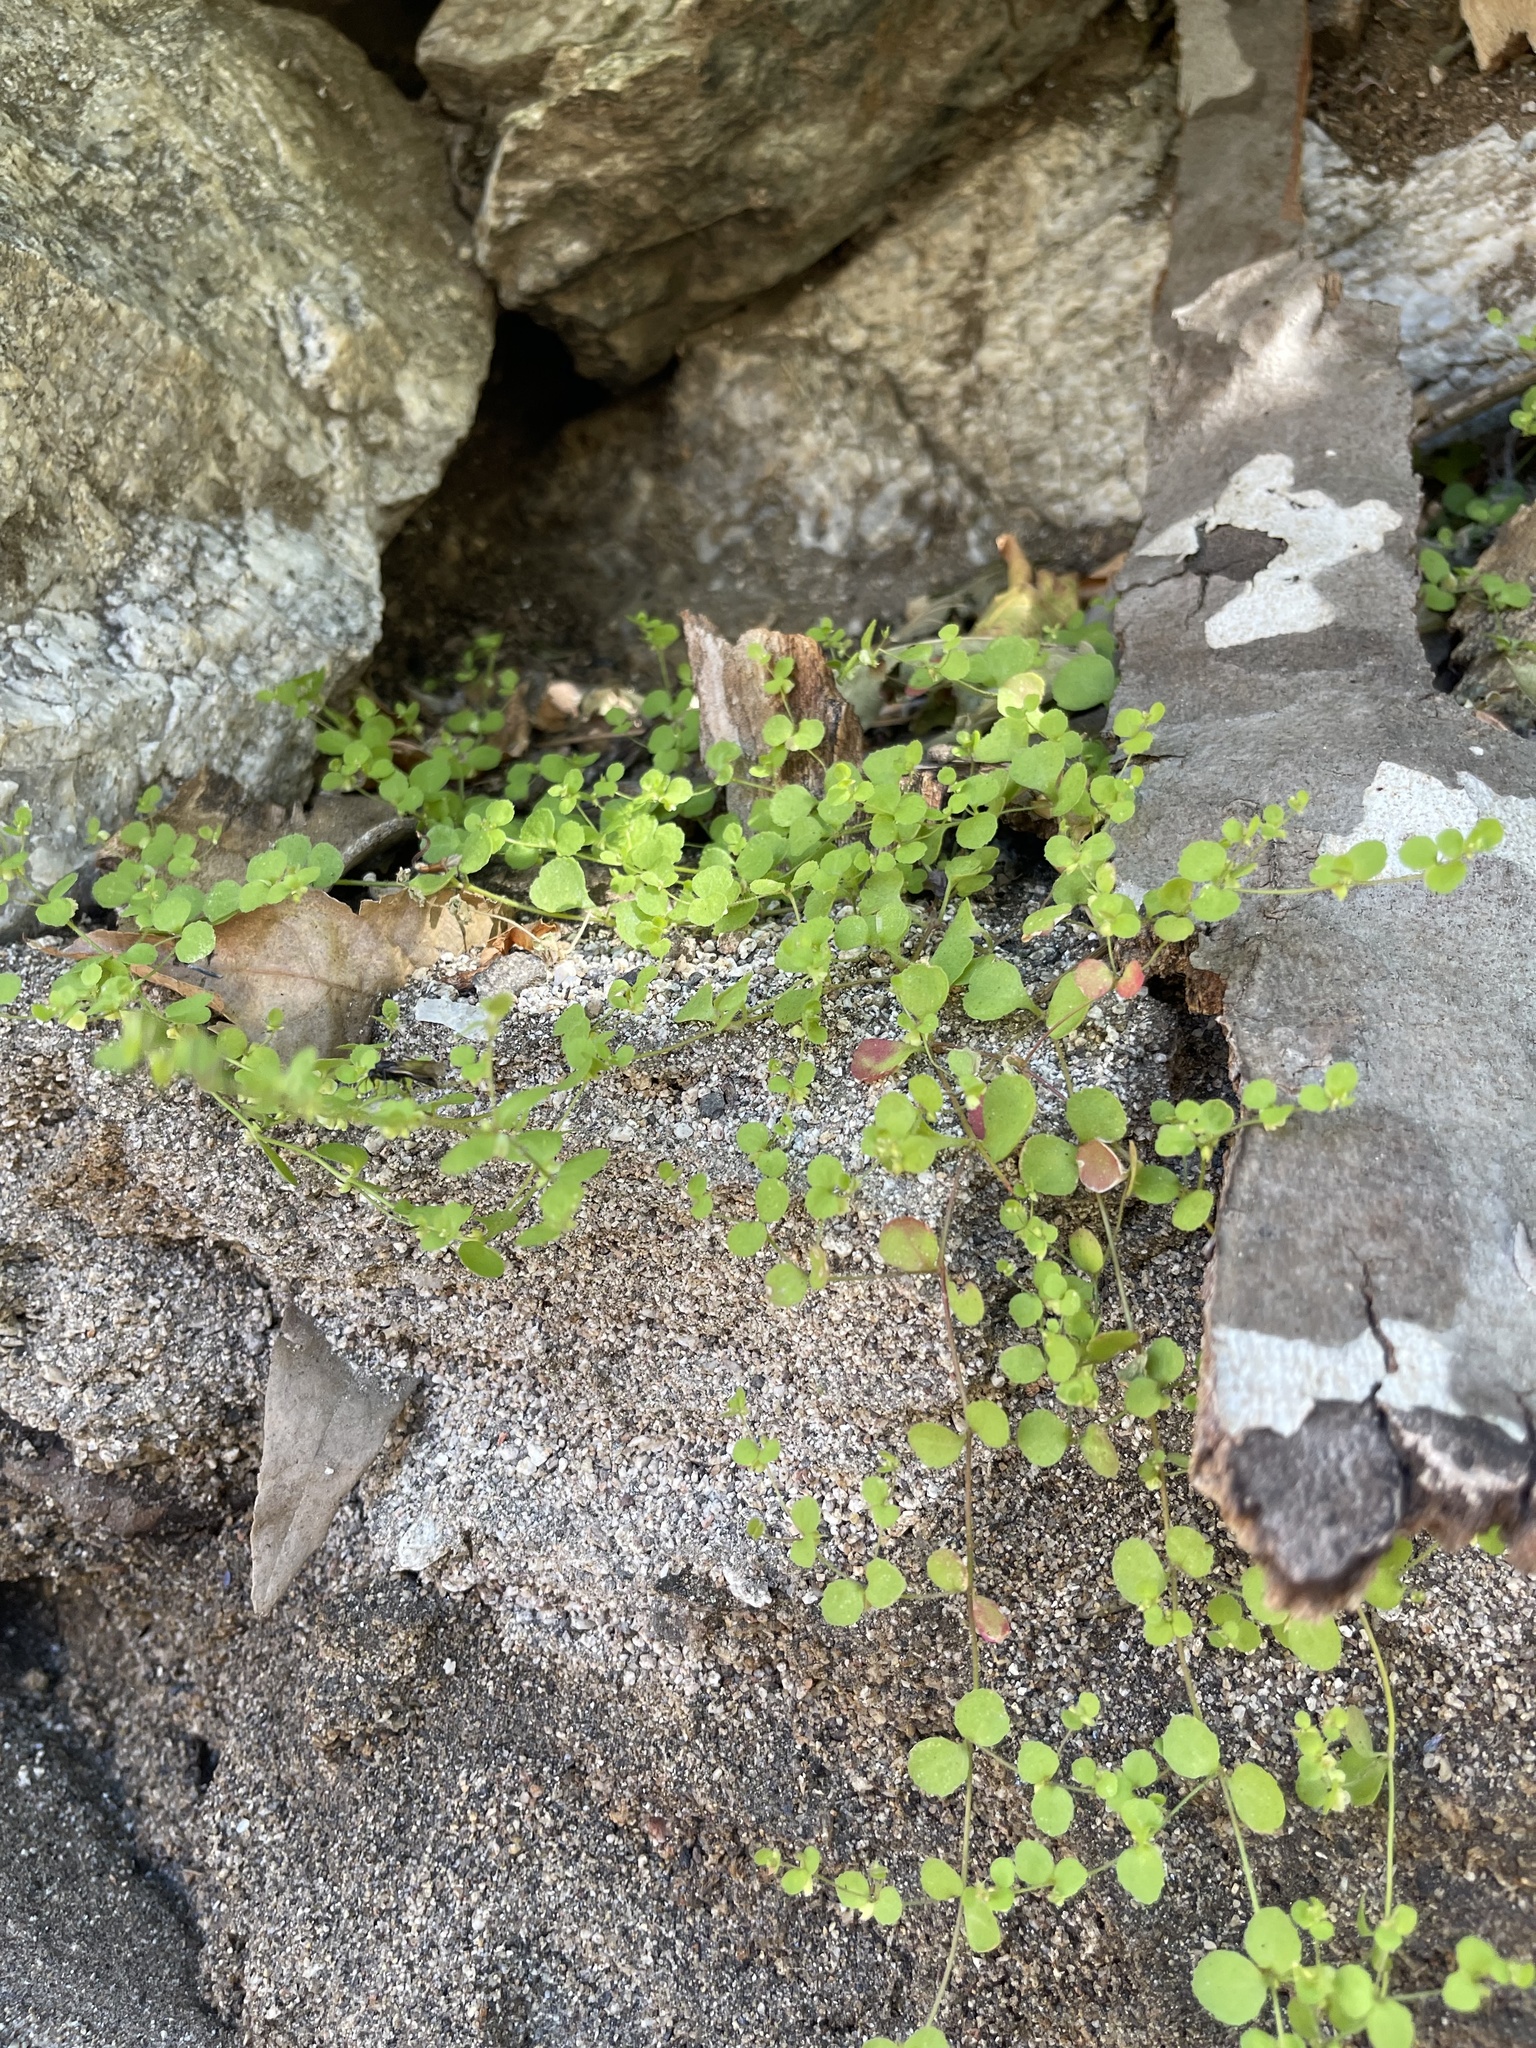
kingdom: Plantae
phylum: Tracheophyta
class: Magnoliopsida
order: Caryophyllales
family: Polygonaceae
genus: Pterostegia
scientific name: Pterostegia drymarioides
